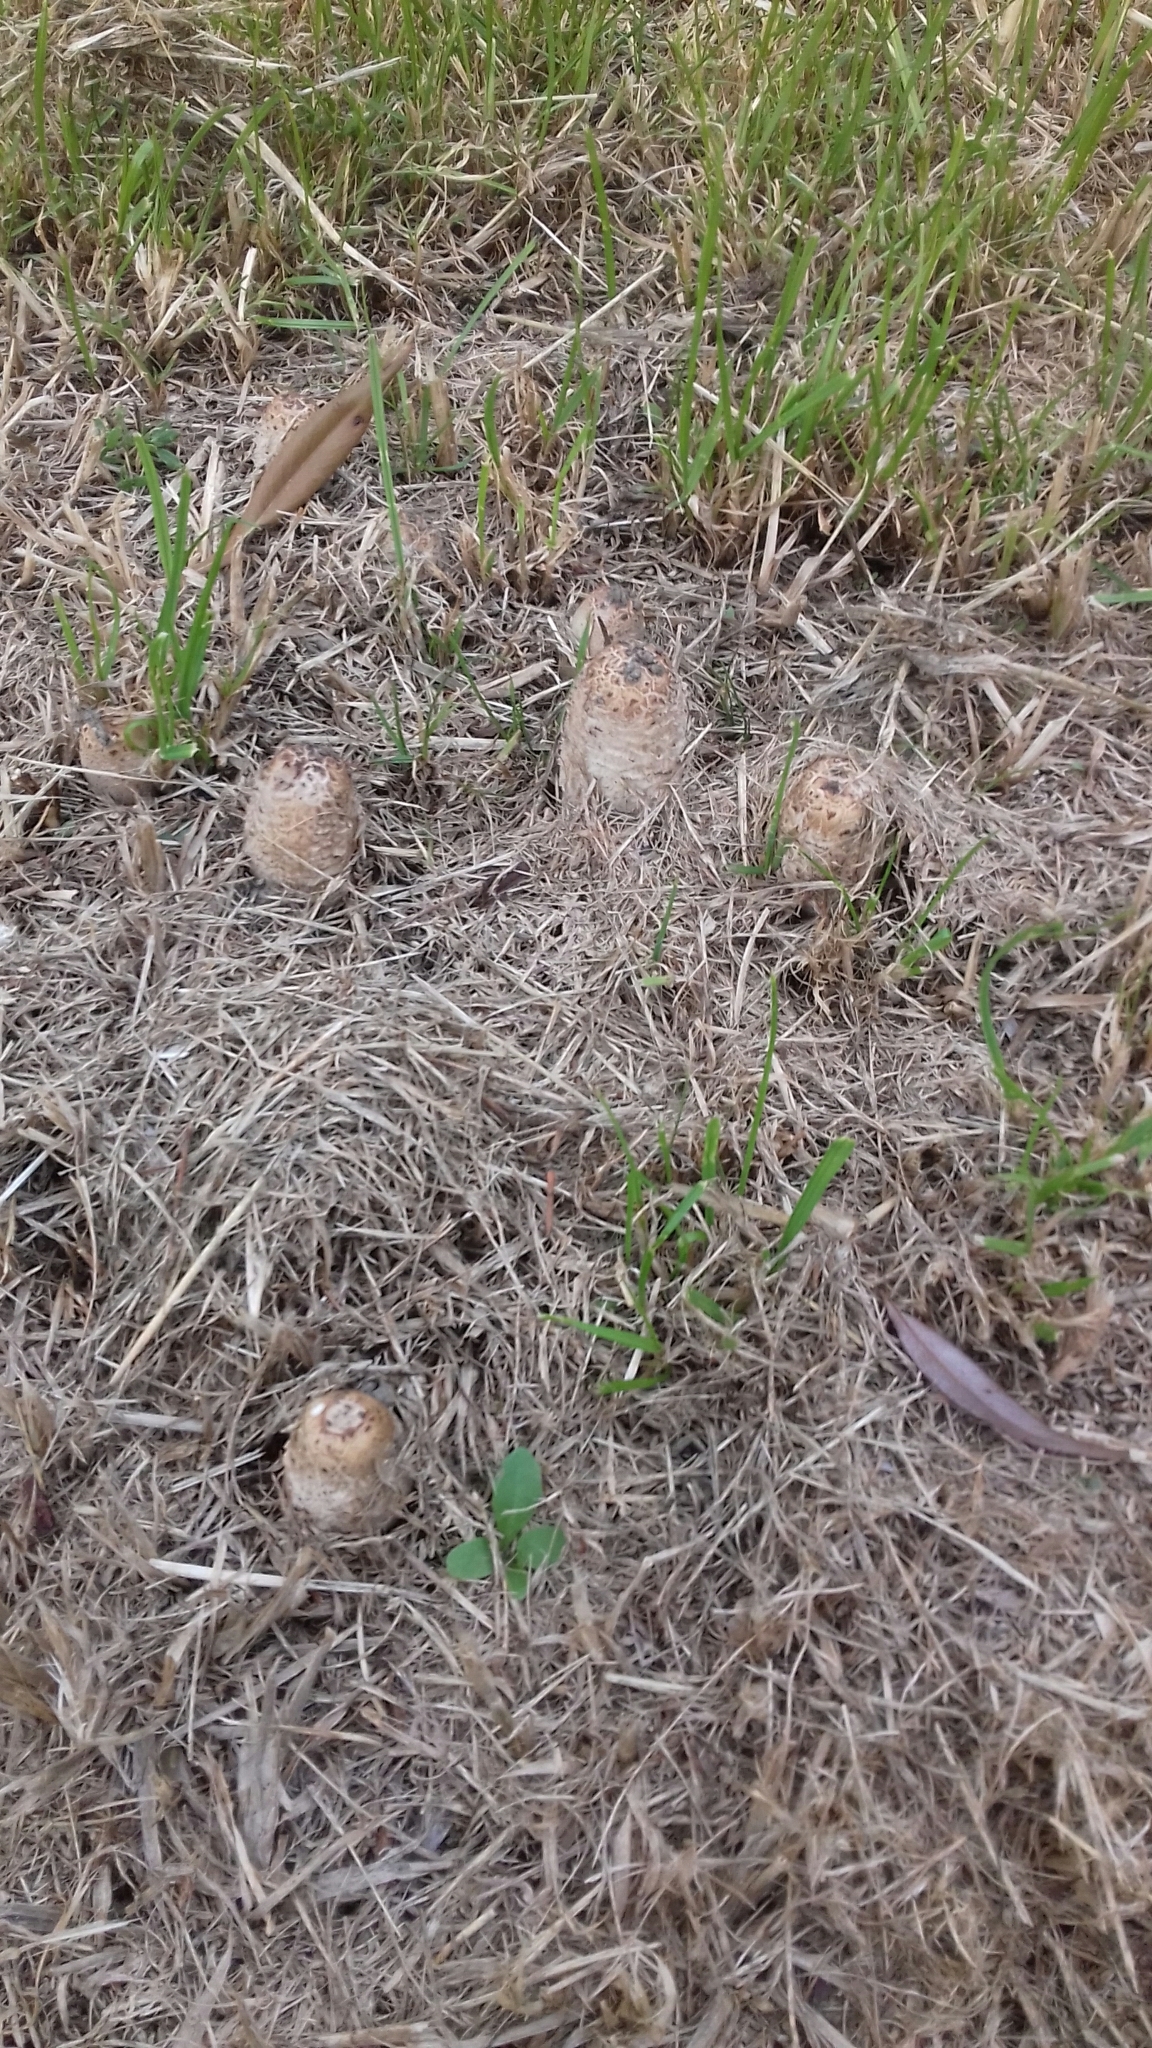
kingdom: Fungi
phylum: Basidiomycota
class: Agaricomycetes
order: Agaricales
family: Agaricaceae
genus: Coprinus
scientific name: Coprinus comatus
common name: Lawyer's wig
